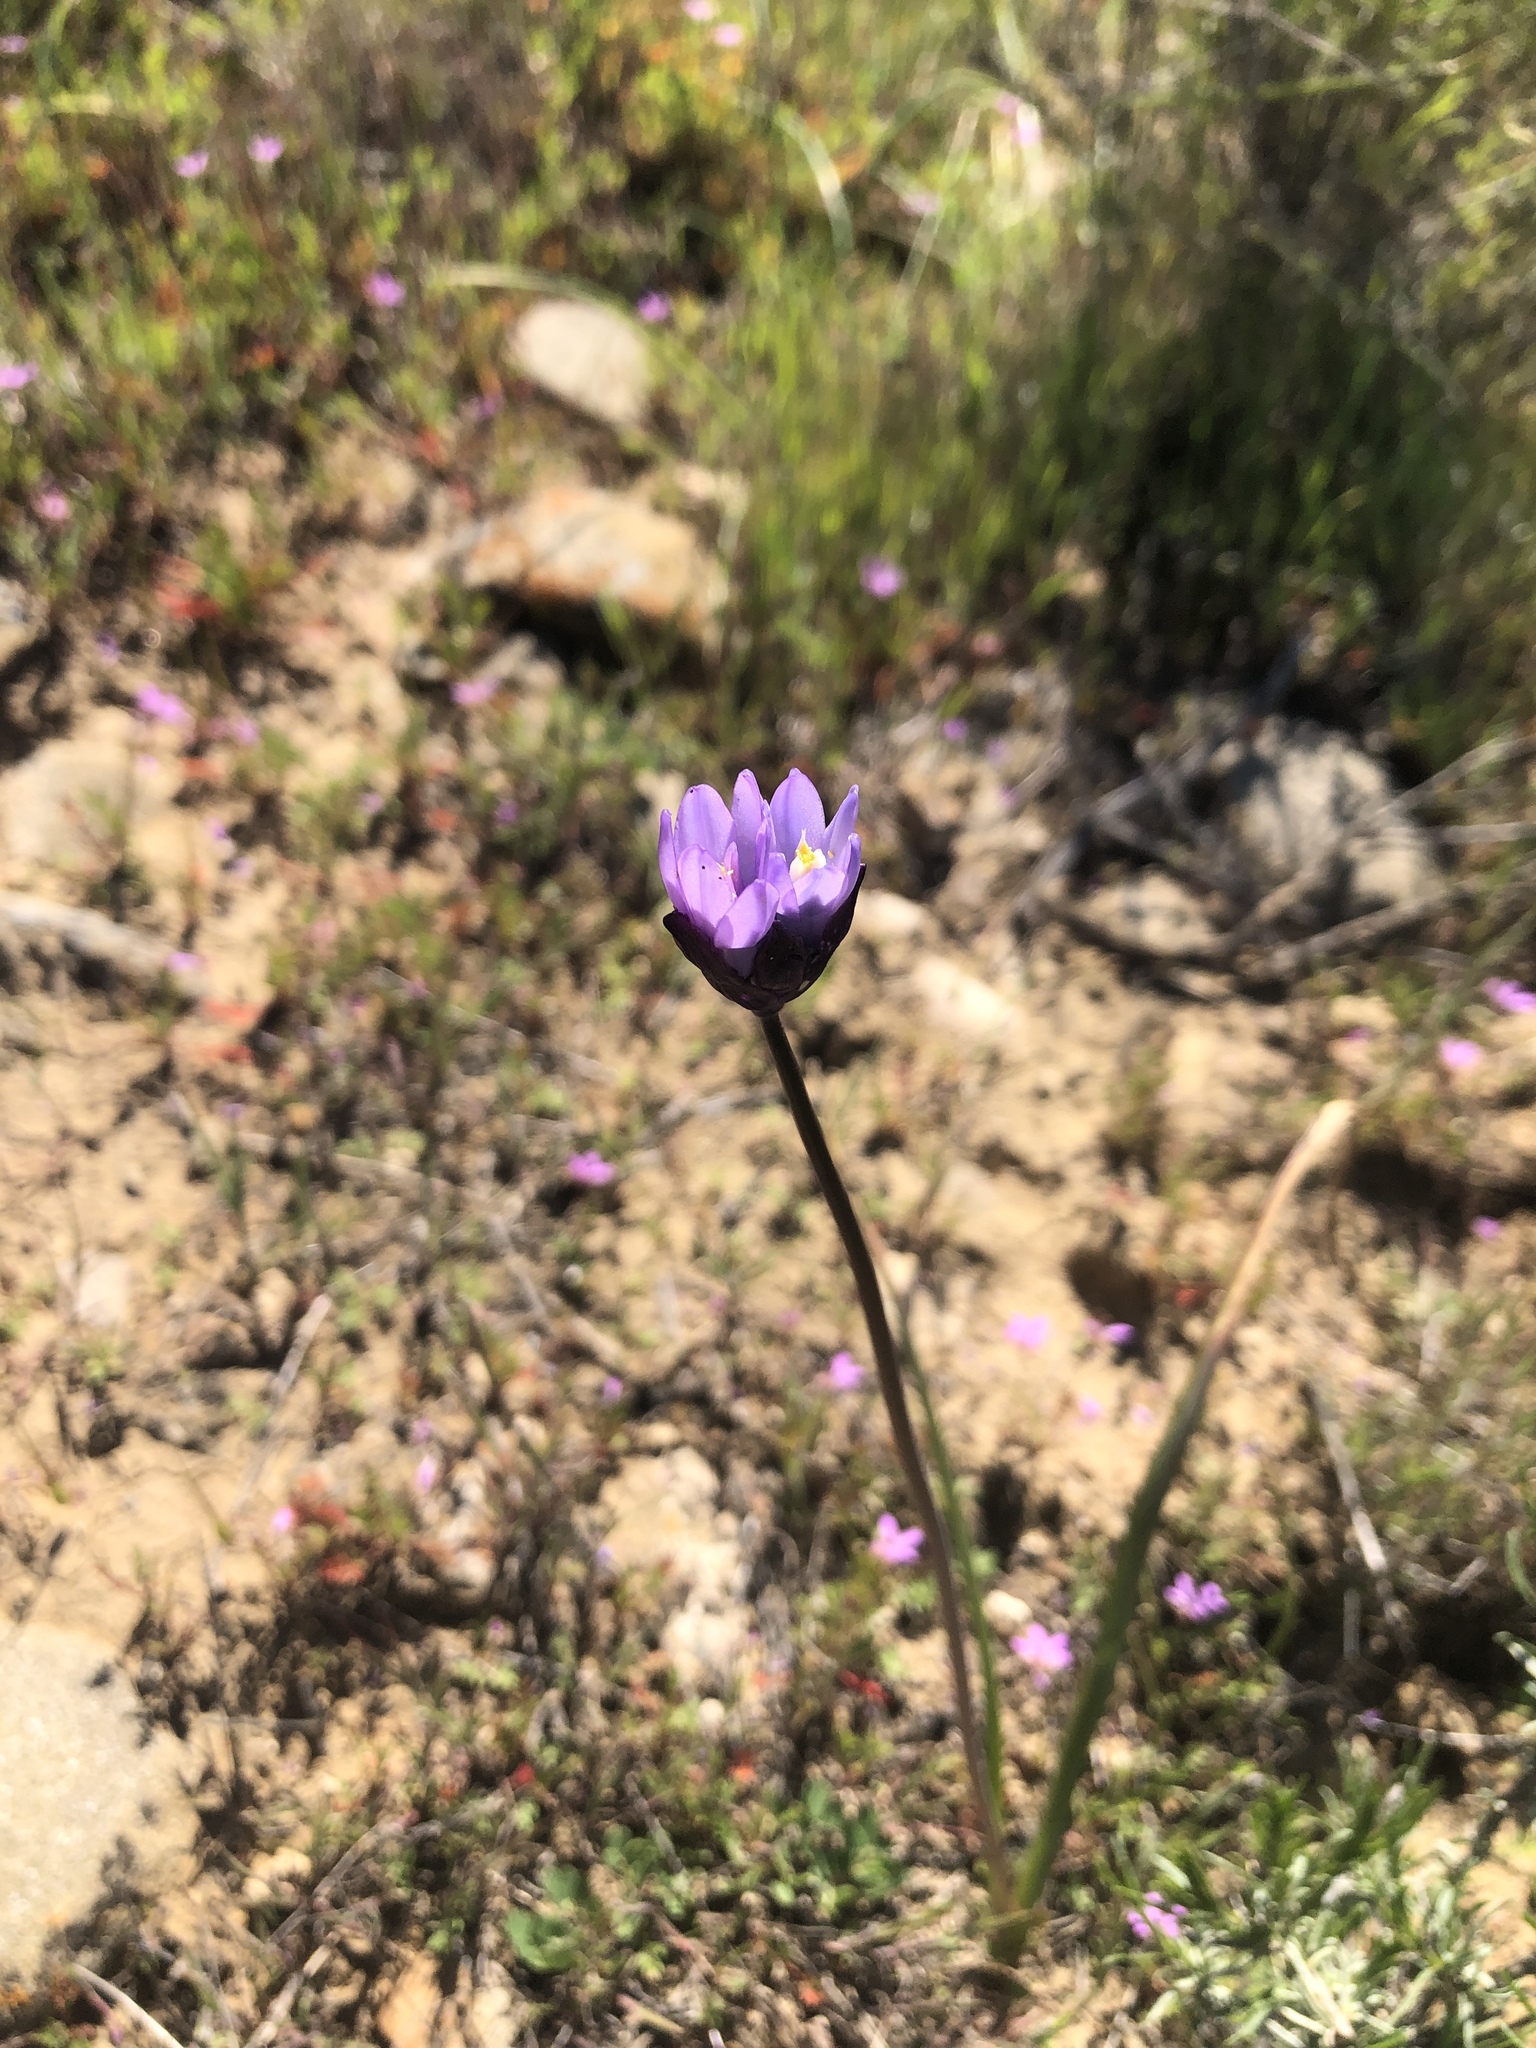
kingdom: Plantae
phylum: Tracheophyta
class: Liliopsida
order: Asparagales
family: Asparagaceae
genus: Dipterostemon
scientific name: Dipterostemon capitatus
